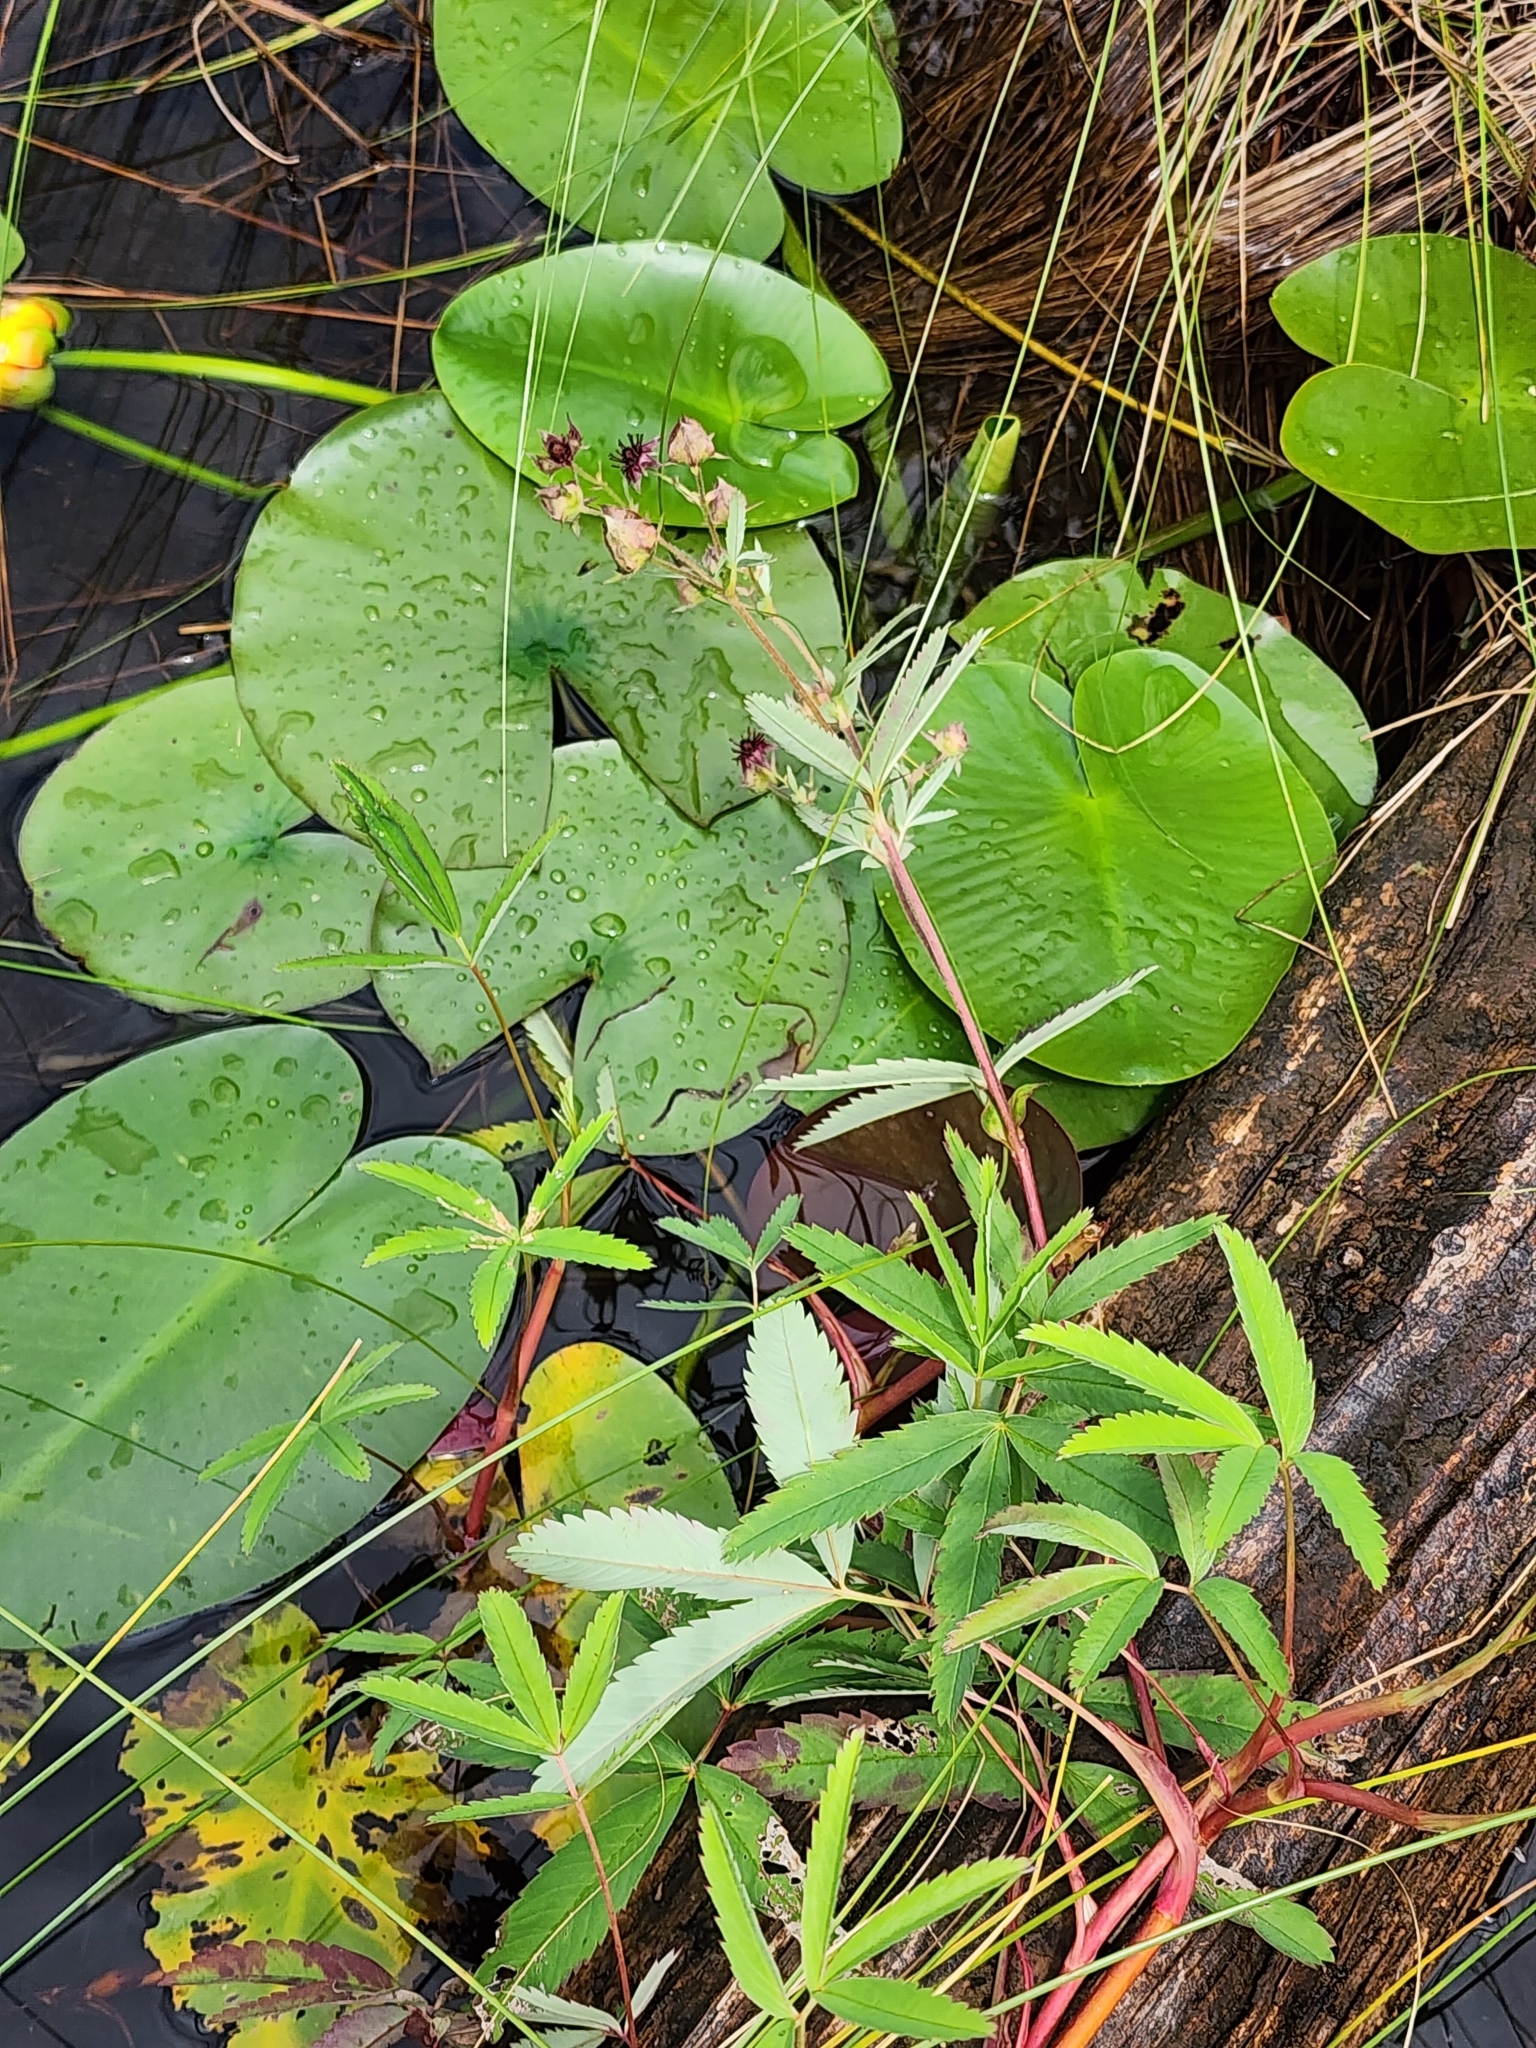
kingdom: Plantae
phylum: Tracheophyta
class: Magnoliopsida
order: Rosales
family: Rosaceae
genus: Comarum
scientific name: Comarum palustre
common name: Marsh cinquefoil
